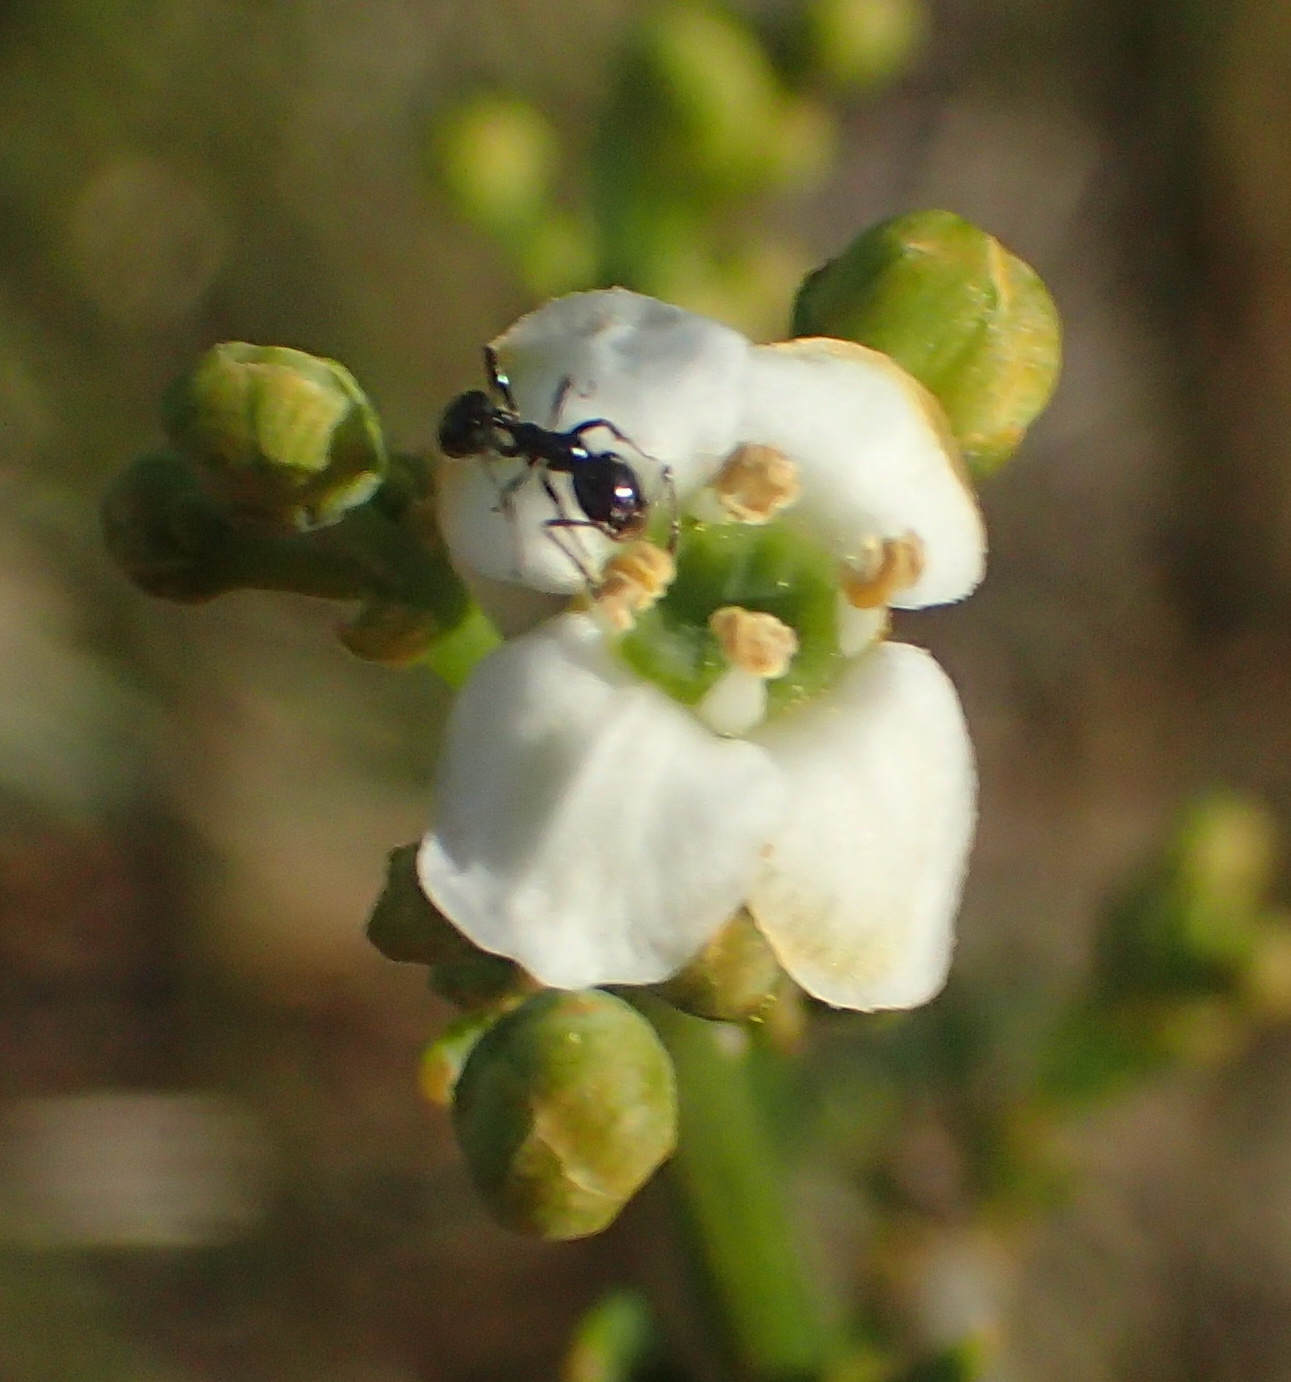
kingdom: Plantae
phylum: Tracheophyta
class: Magnoliopsida
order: Solanales
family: Montiniaceae
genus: Montinia
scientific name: Montinia caryophyllacea
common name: Wild clove-bush
